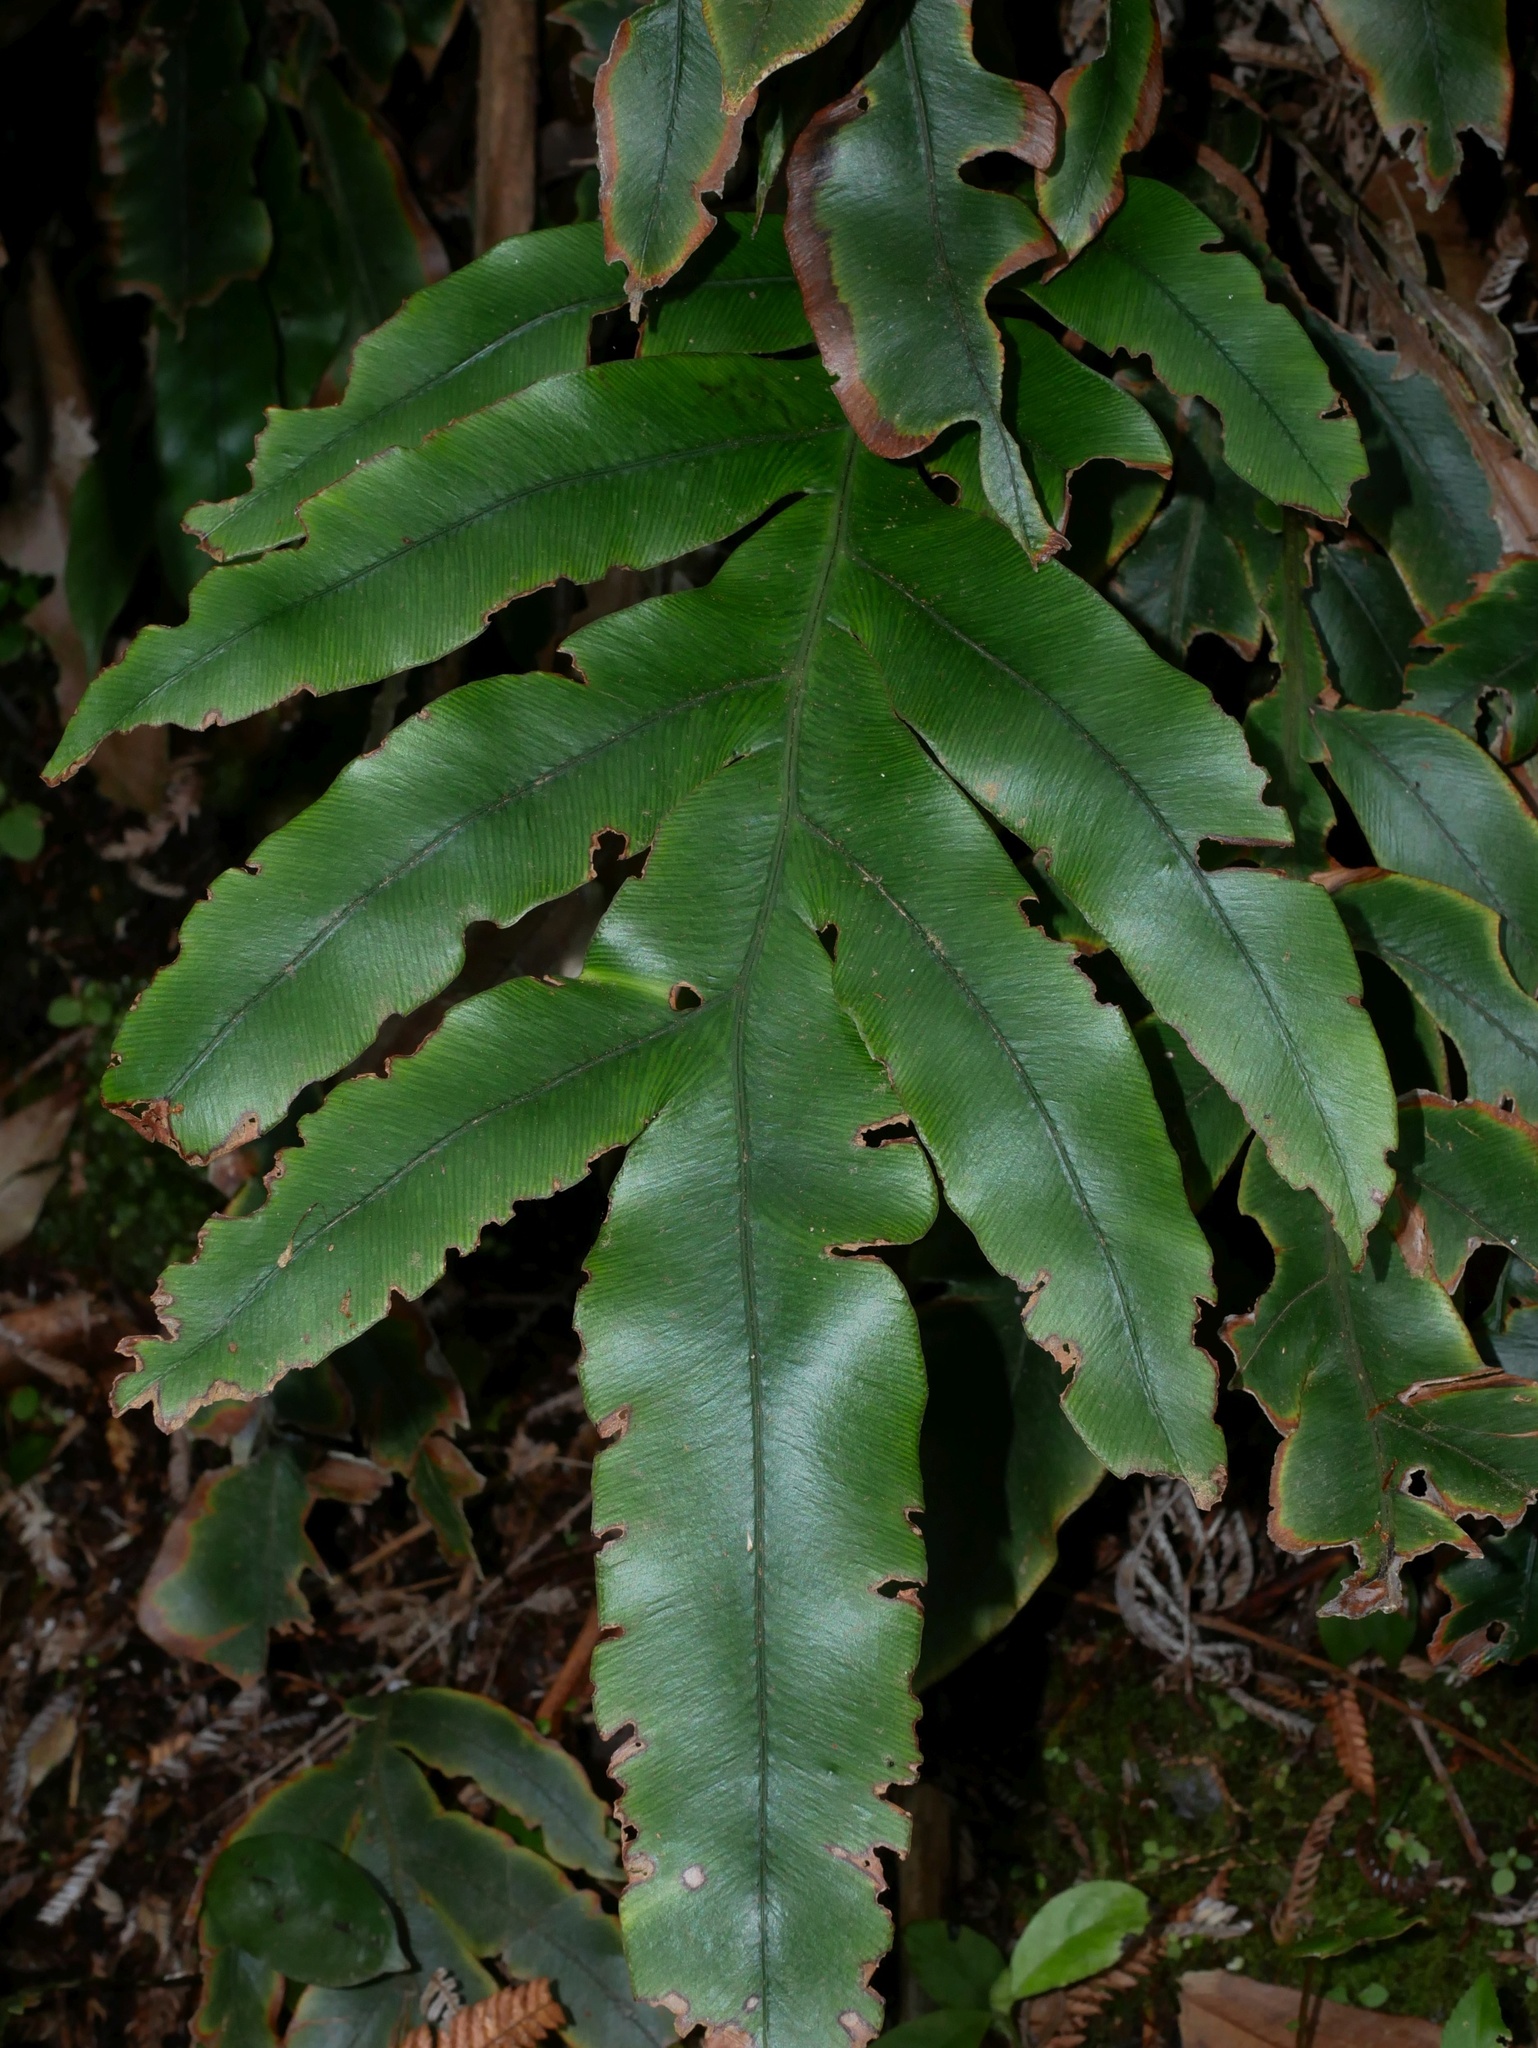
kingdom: Plantae
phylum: Tracheophyta
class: Polypodiopsida
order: Polypodiales
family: Blechnaceae
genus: Austroblechnum
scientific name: Austroblechnum colensoi
